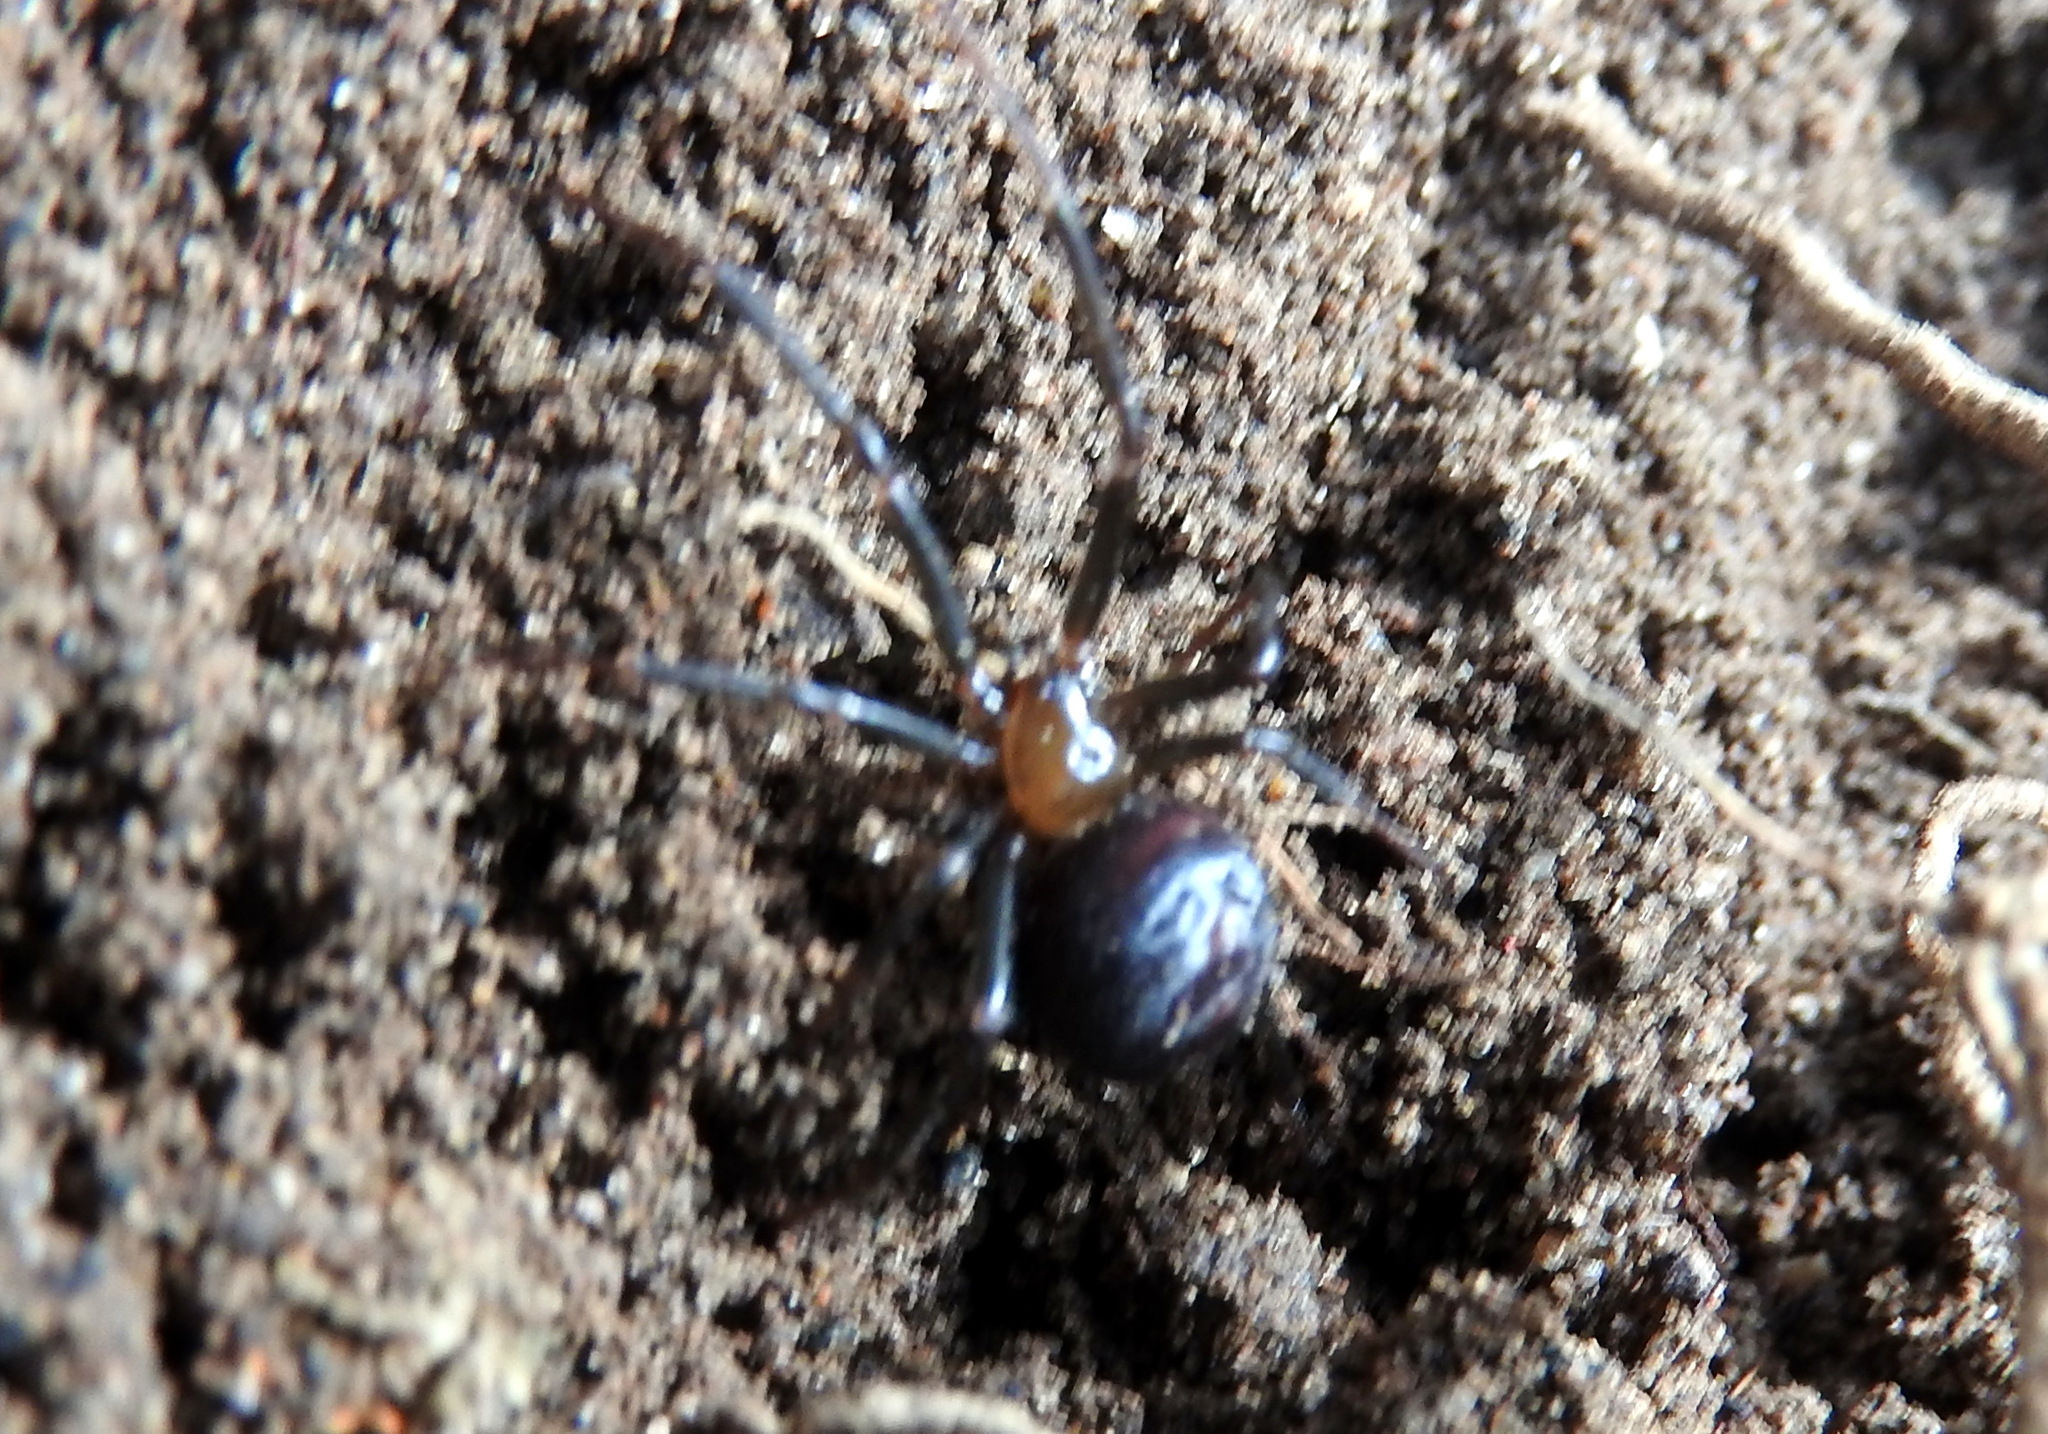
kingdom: Animalia
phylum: Arthropoda
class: Arachnida
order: Araneae
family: Theridiidae
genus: Steatoda
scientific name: Steatoda grossa
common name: False black widow
